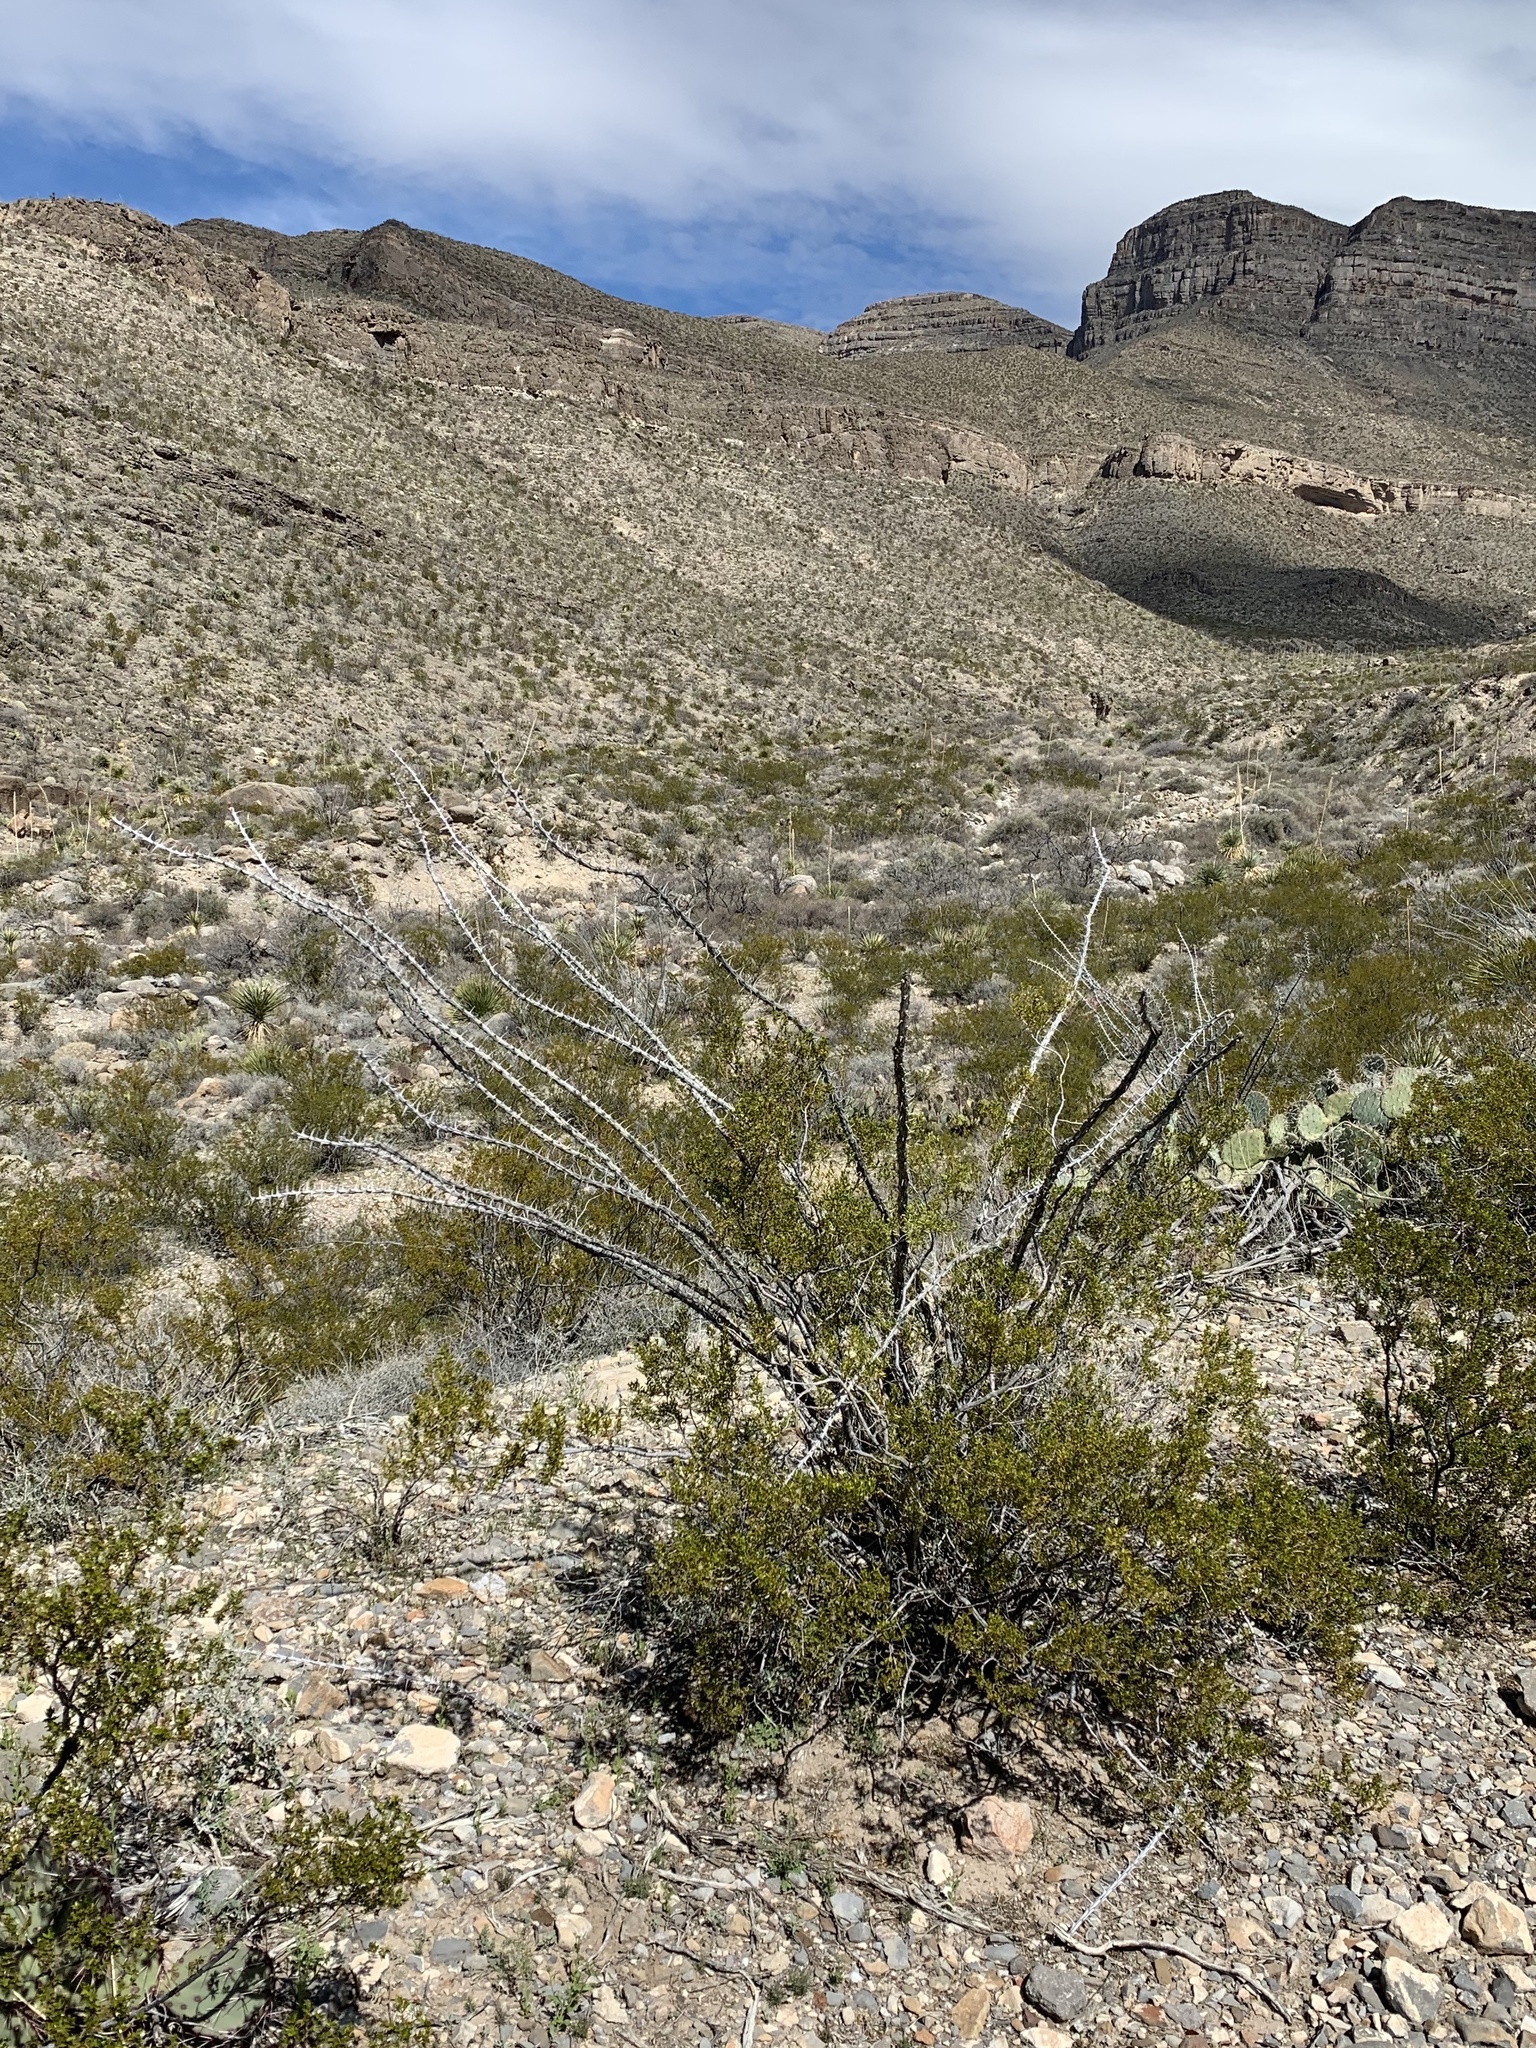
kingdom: Plantae
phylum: Tracheophyta
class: Magnoliopsida
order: Ericales
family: Fouquieriaceae
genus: Fouquieria
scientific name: Fouquieria splendens
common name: Vine-cactus
